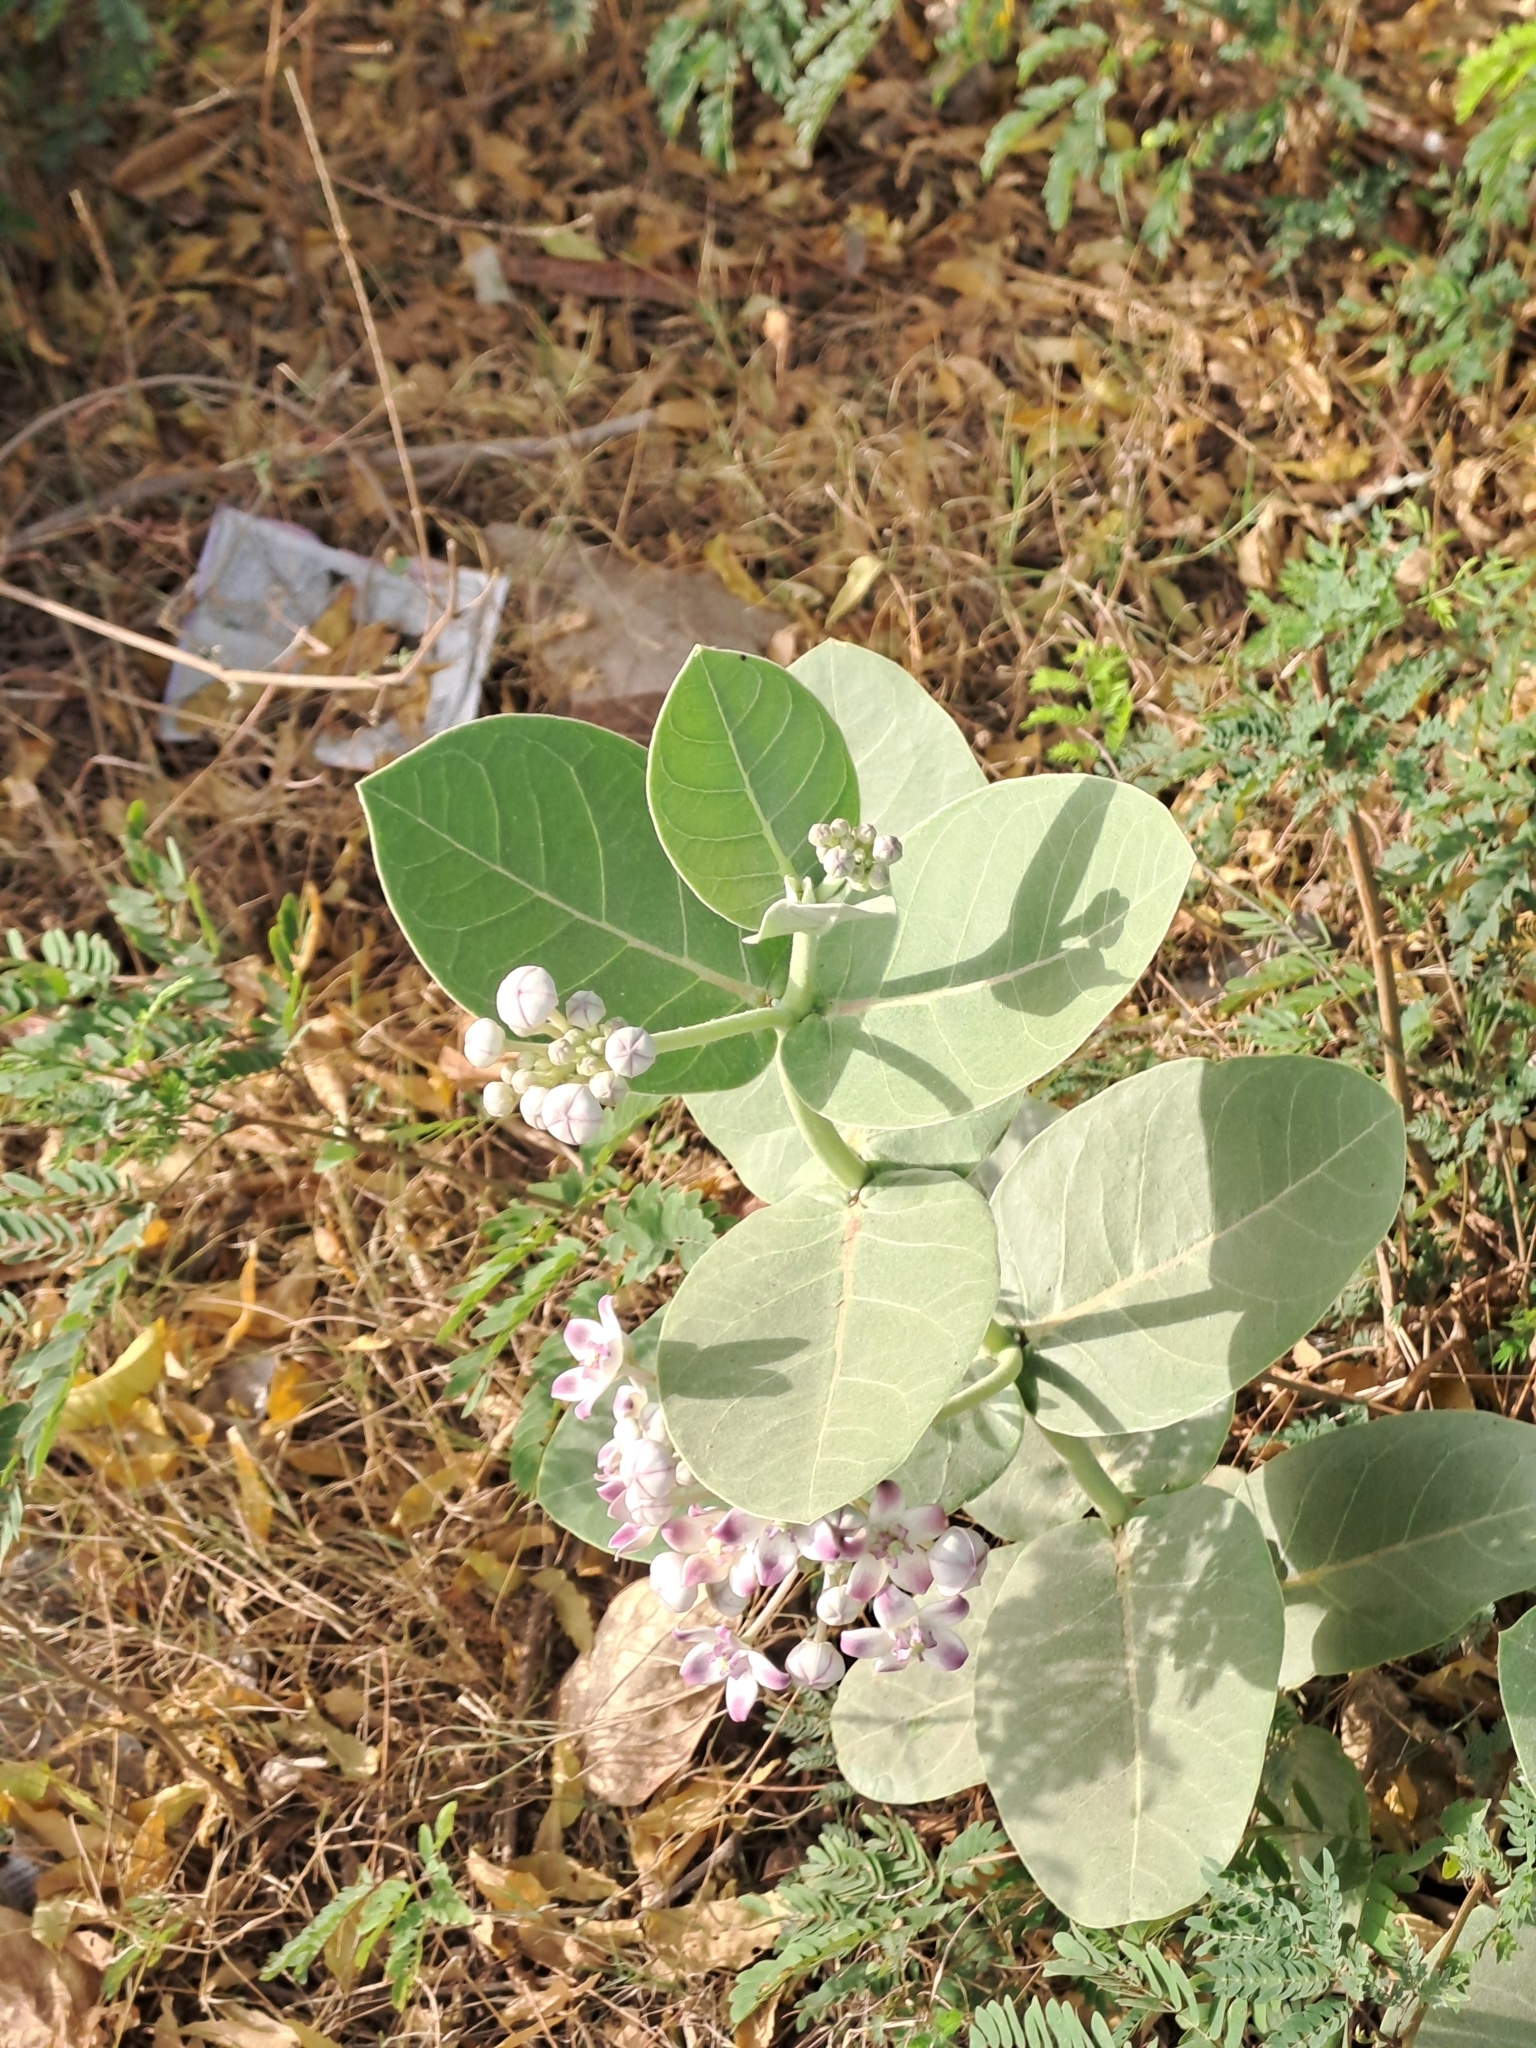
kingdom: Plantae
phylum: Tracheophyta
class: Magnoliopsida
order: Gentianales
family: Apocynaceae
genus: Calotropis
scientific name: Calotropis procera
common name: Roostertree
